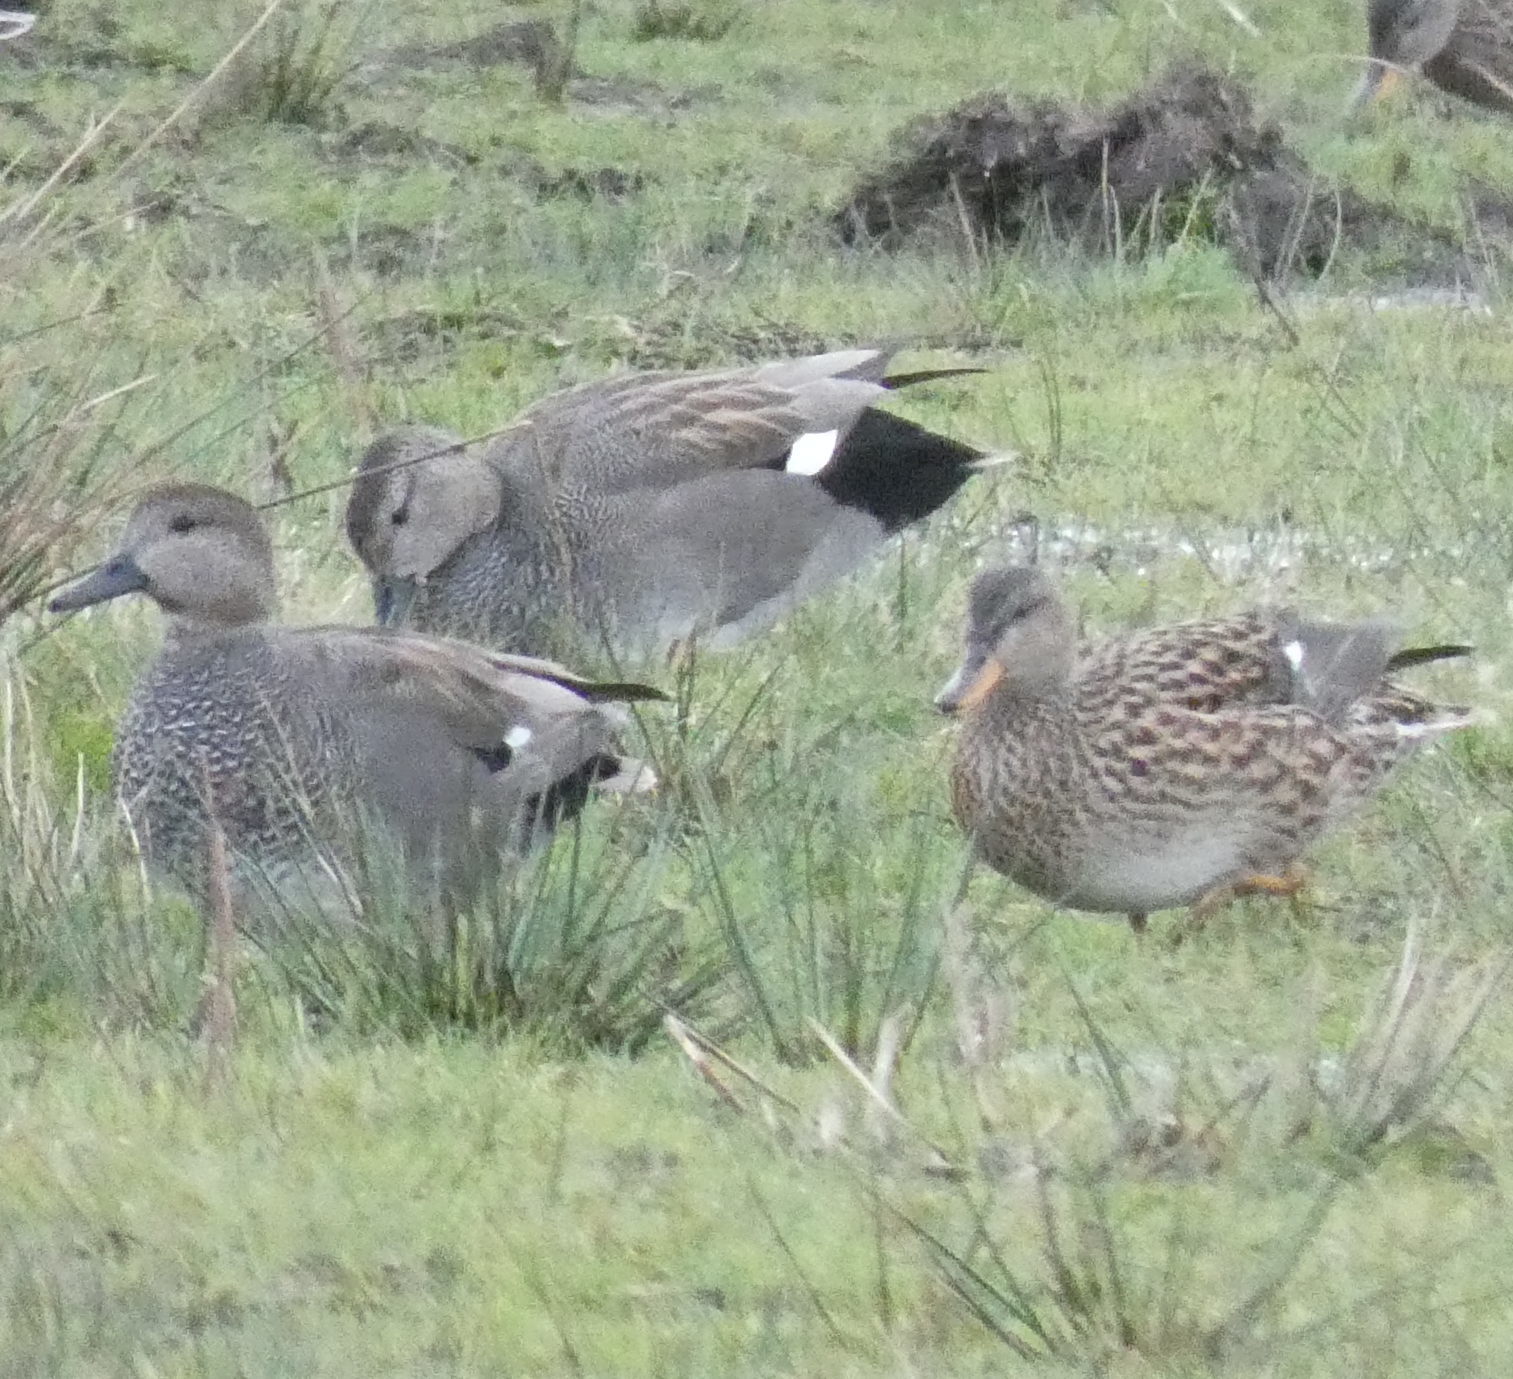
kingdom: Animalia
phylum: Chordata
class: Aves
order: Anseriformes
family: Anatidae
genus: Mareca
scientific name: Mareca strepera
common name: Gadwall
